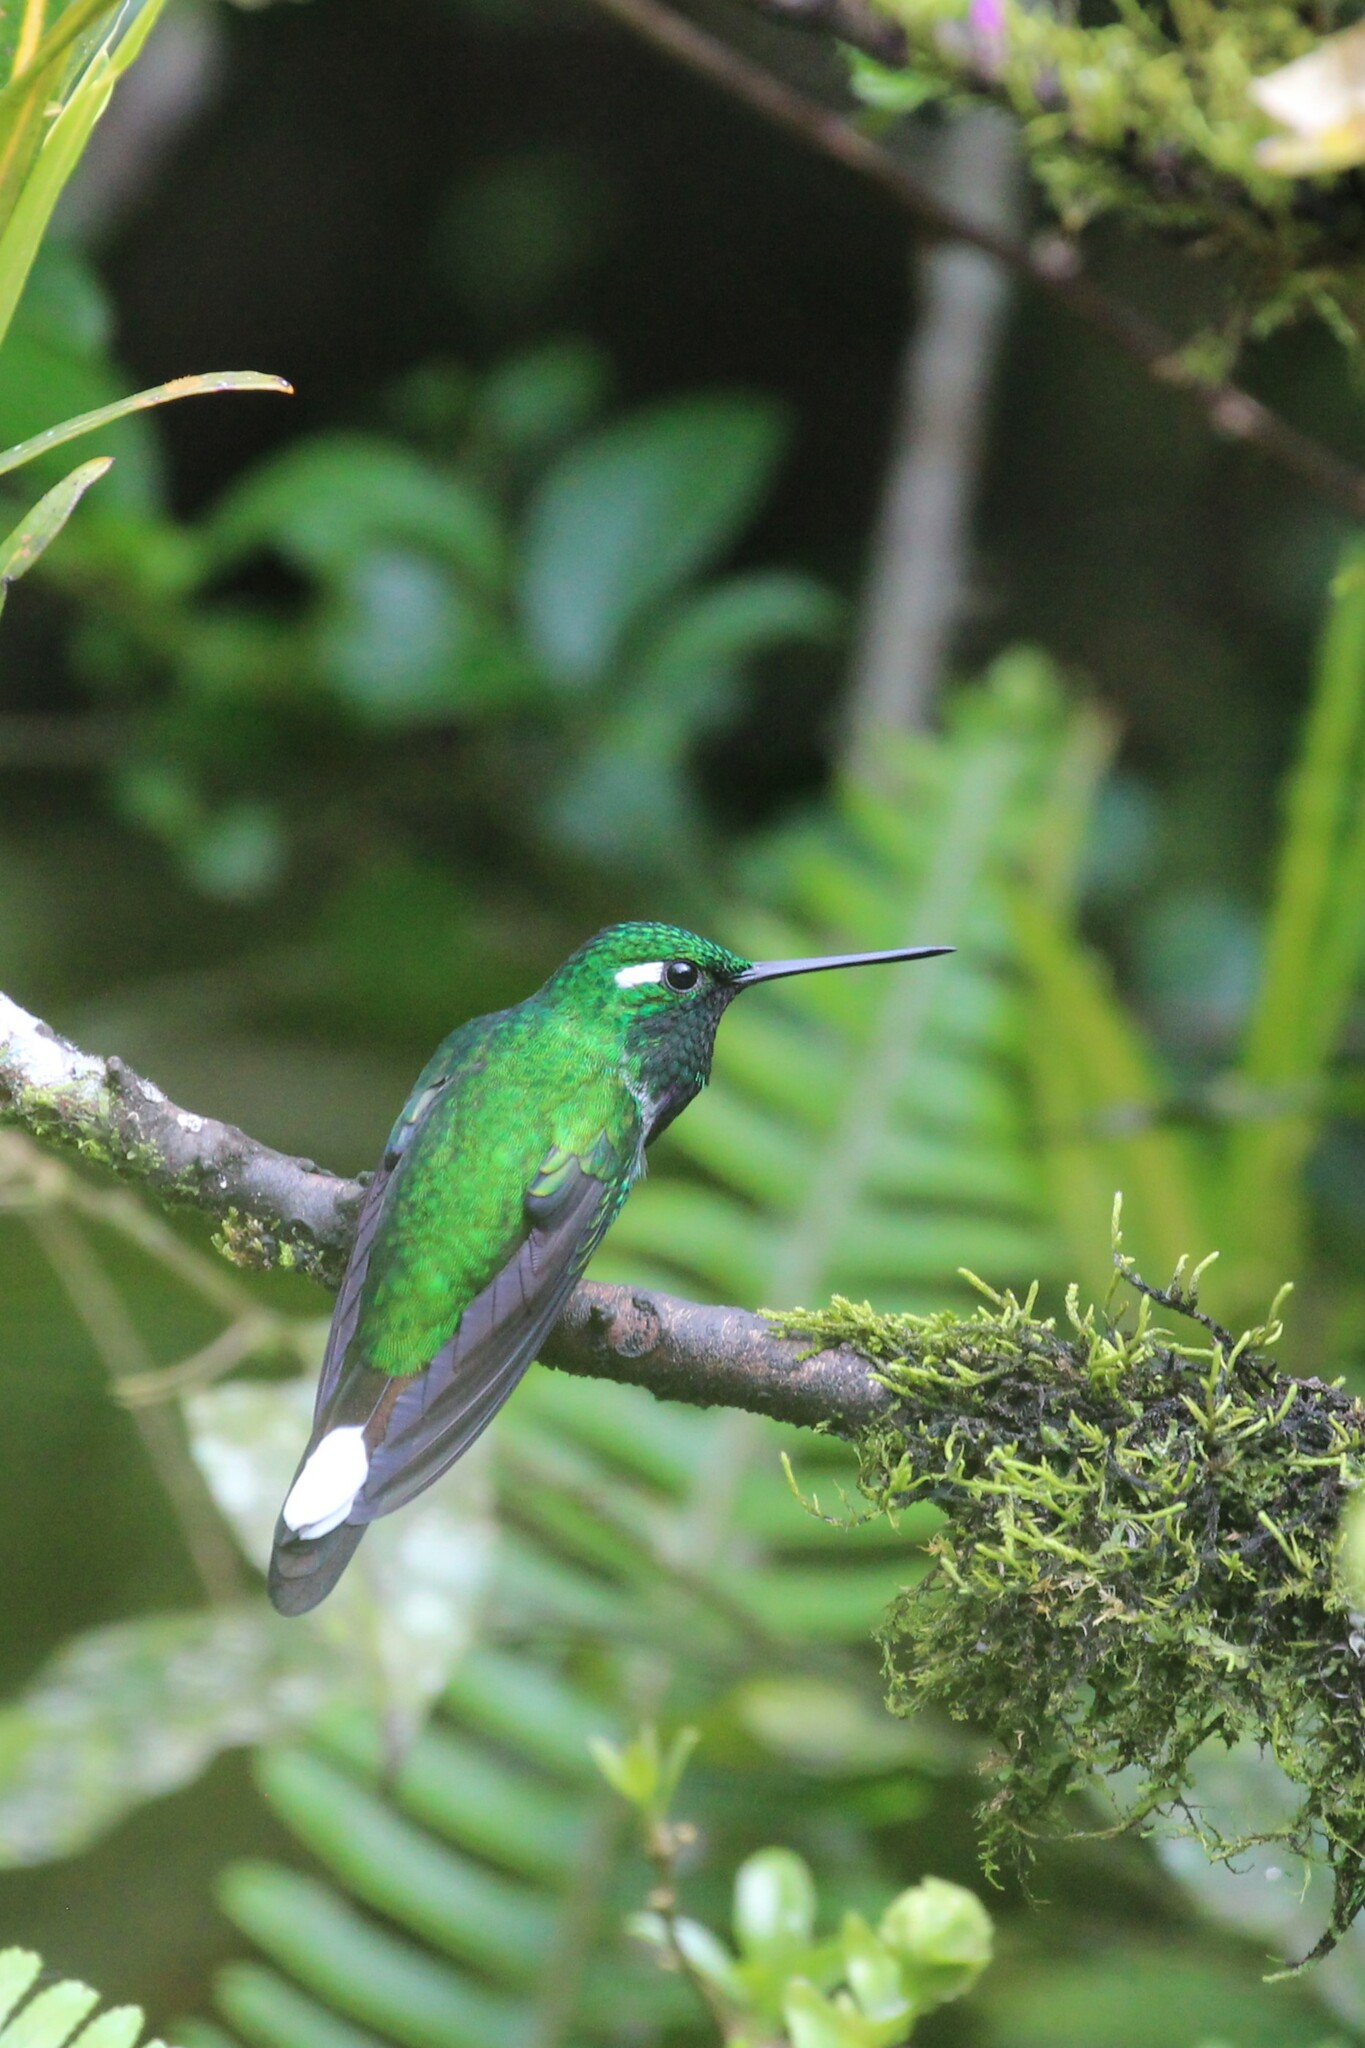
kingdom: Animalia
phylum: Chordata
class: Aves
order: Apodiformes
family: Trochilidae
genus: Urosticte
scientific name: Urosticte benjamini
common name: Purple-bibbed whitetip
